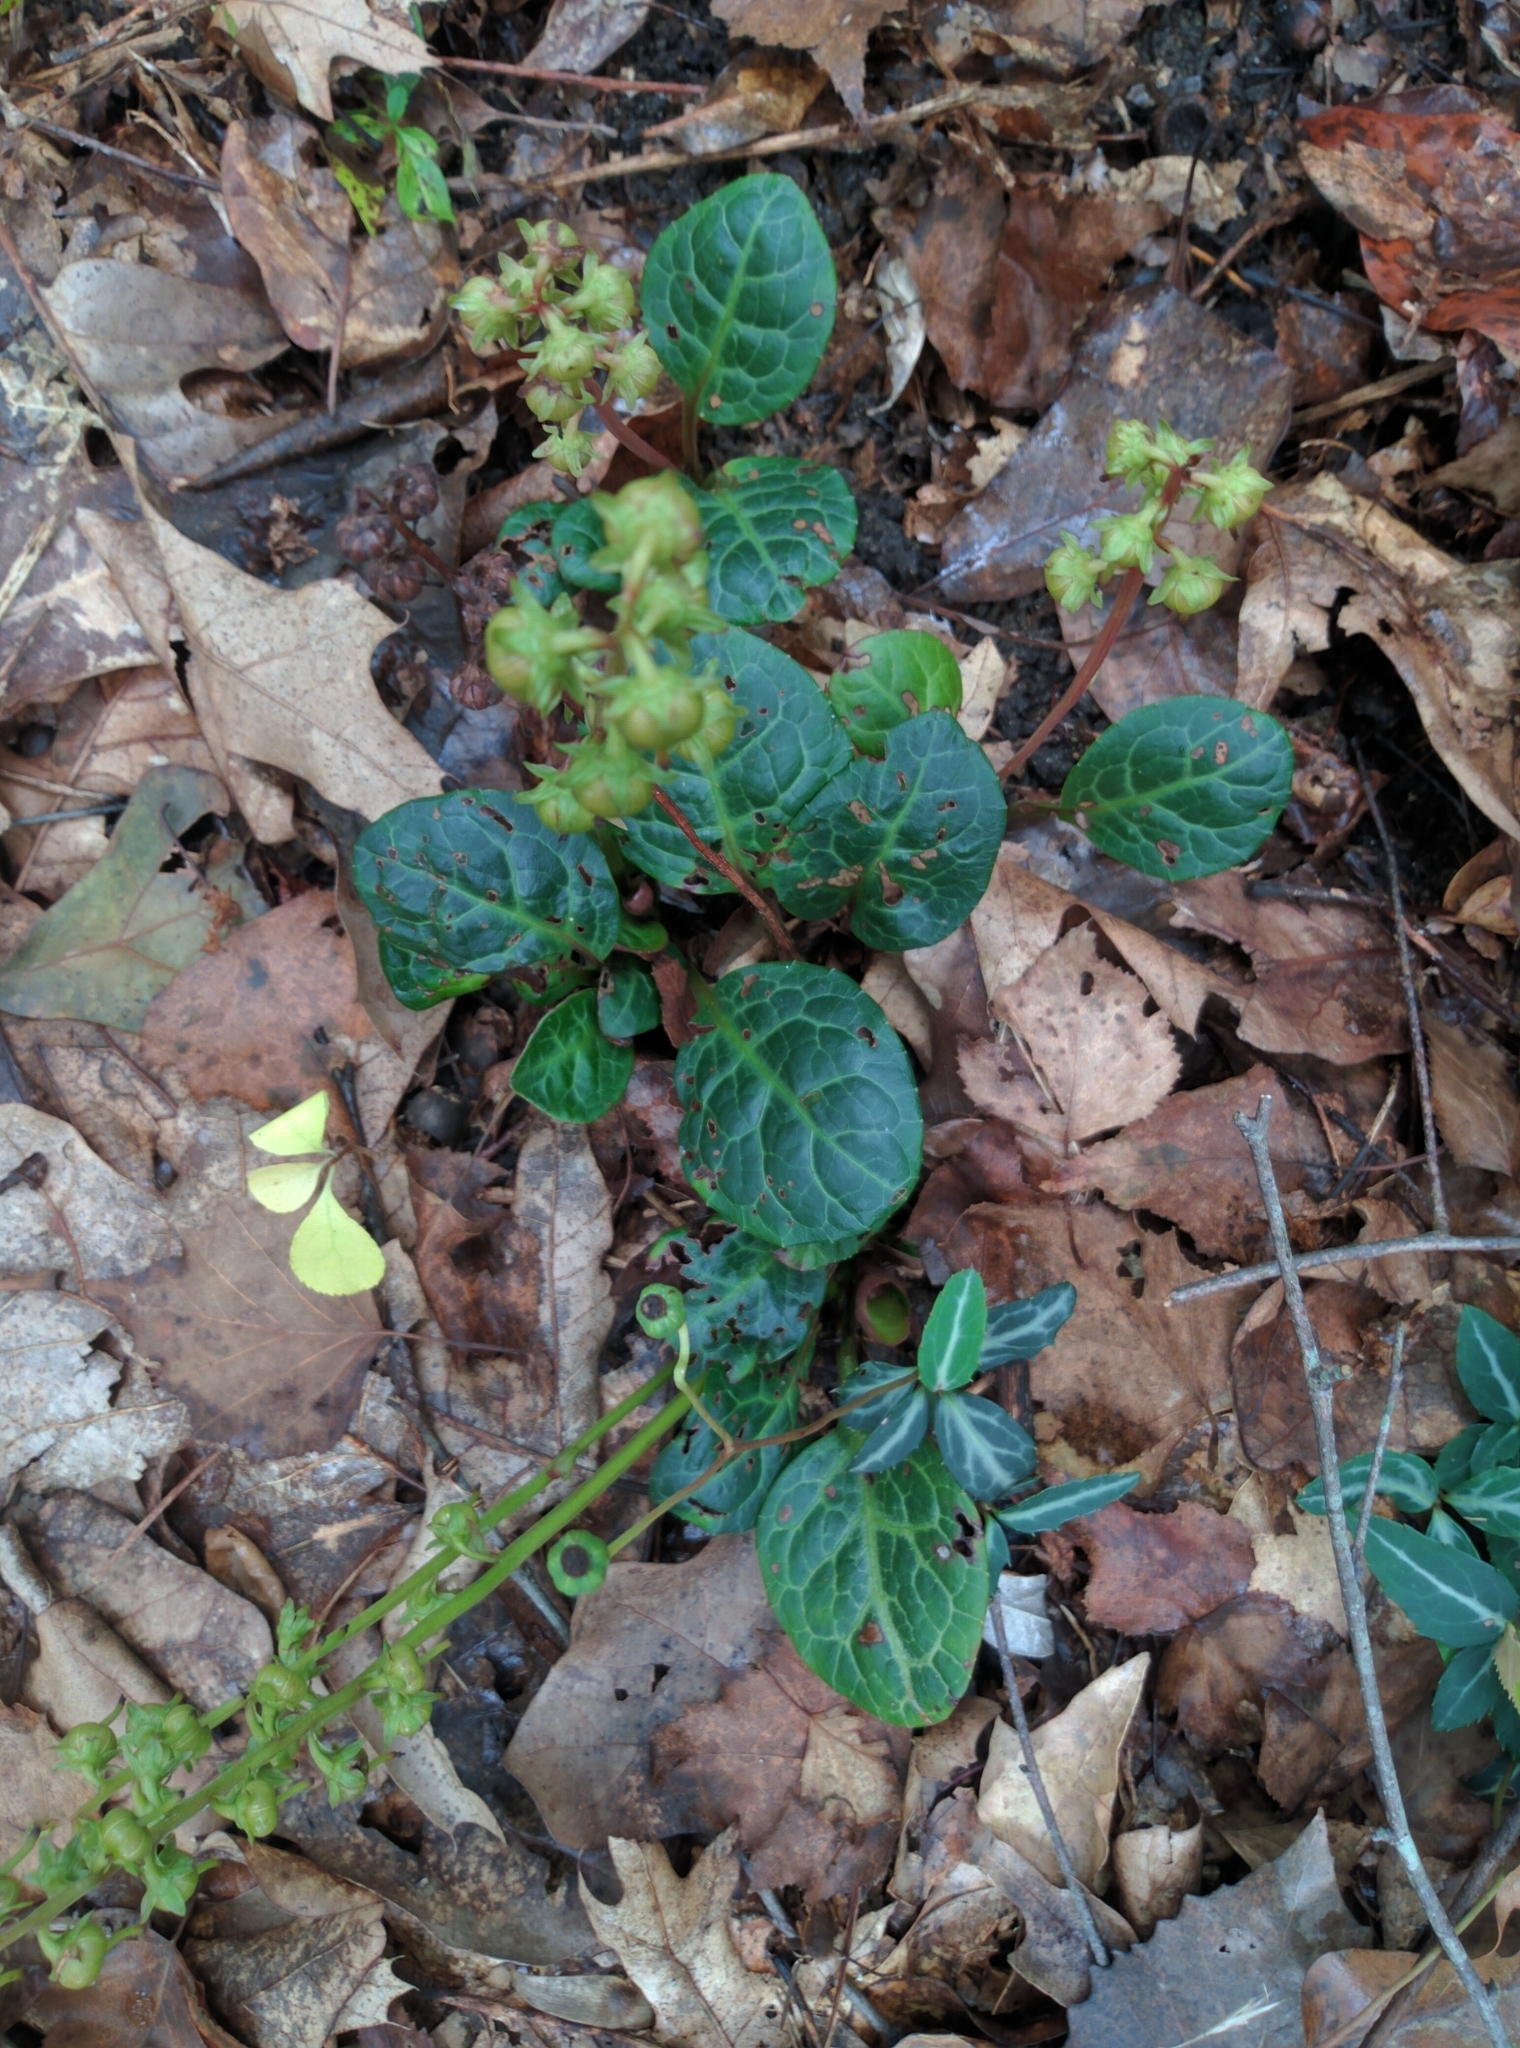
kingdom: Plantae
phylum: Tracheophyta
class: Magnoliopsida
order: Ericales
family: Ericaceae
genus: Pyrola
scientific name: Pyrola americana
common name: American wintergreen
